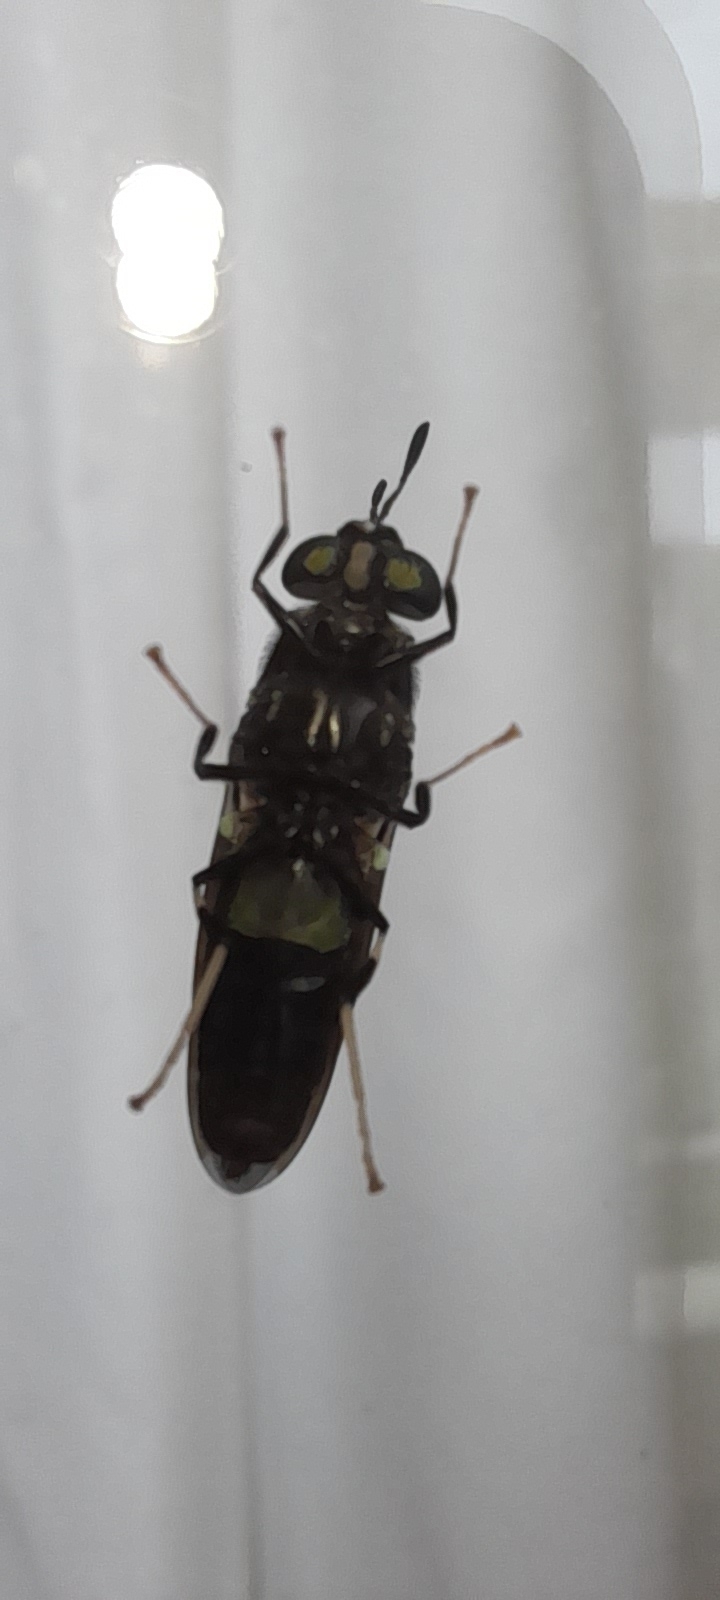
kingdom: Animalia
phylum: Arthropoda
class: Insecta
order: Diptera
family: Stratiomyidae
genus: Hermetia
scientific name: Hermetia illucens
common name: Black soldier fly
